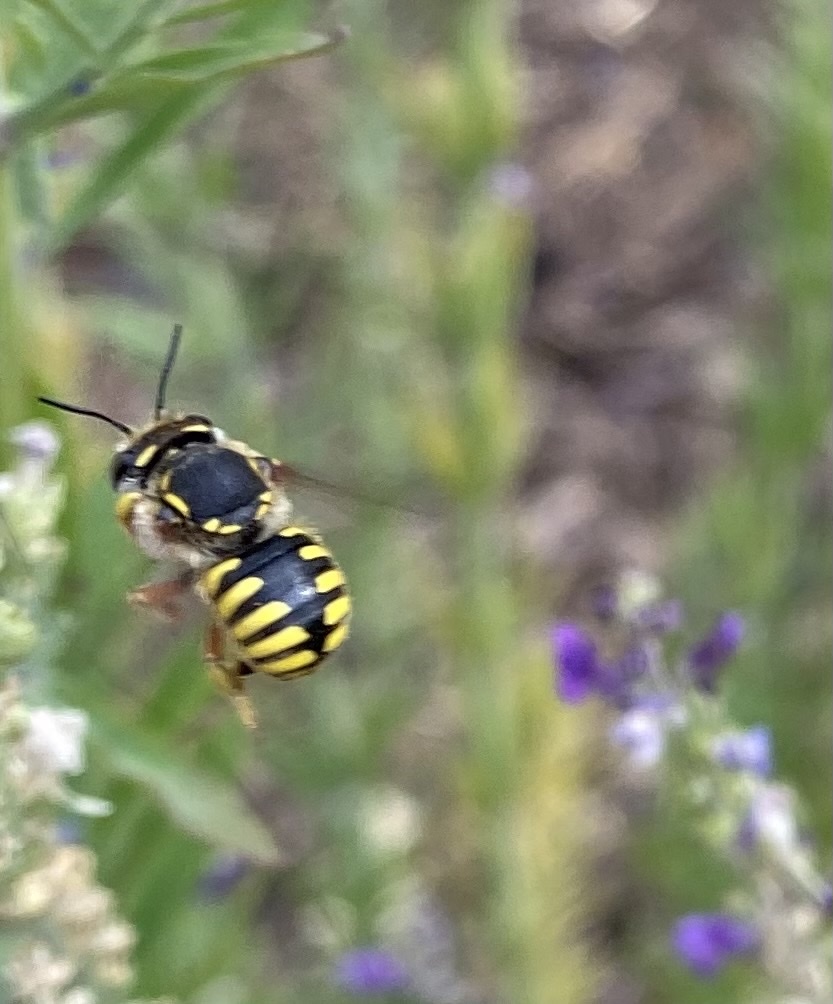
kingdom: Animalia
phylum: Arthropoda
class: Insecta
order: Hymenoptera
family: Megachilidae
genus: Anthidium
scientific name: Anthidium manicatum
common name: Wool carder bee
